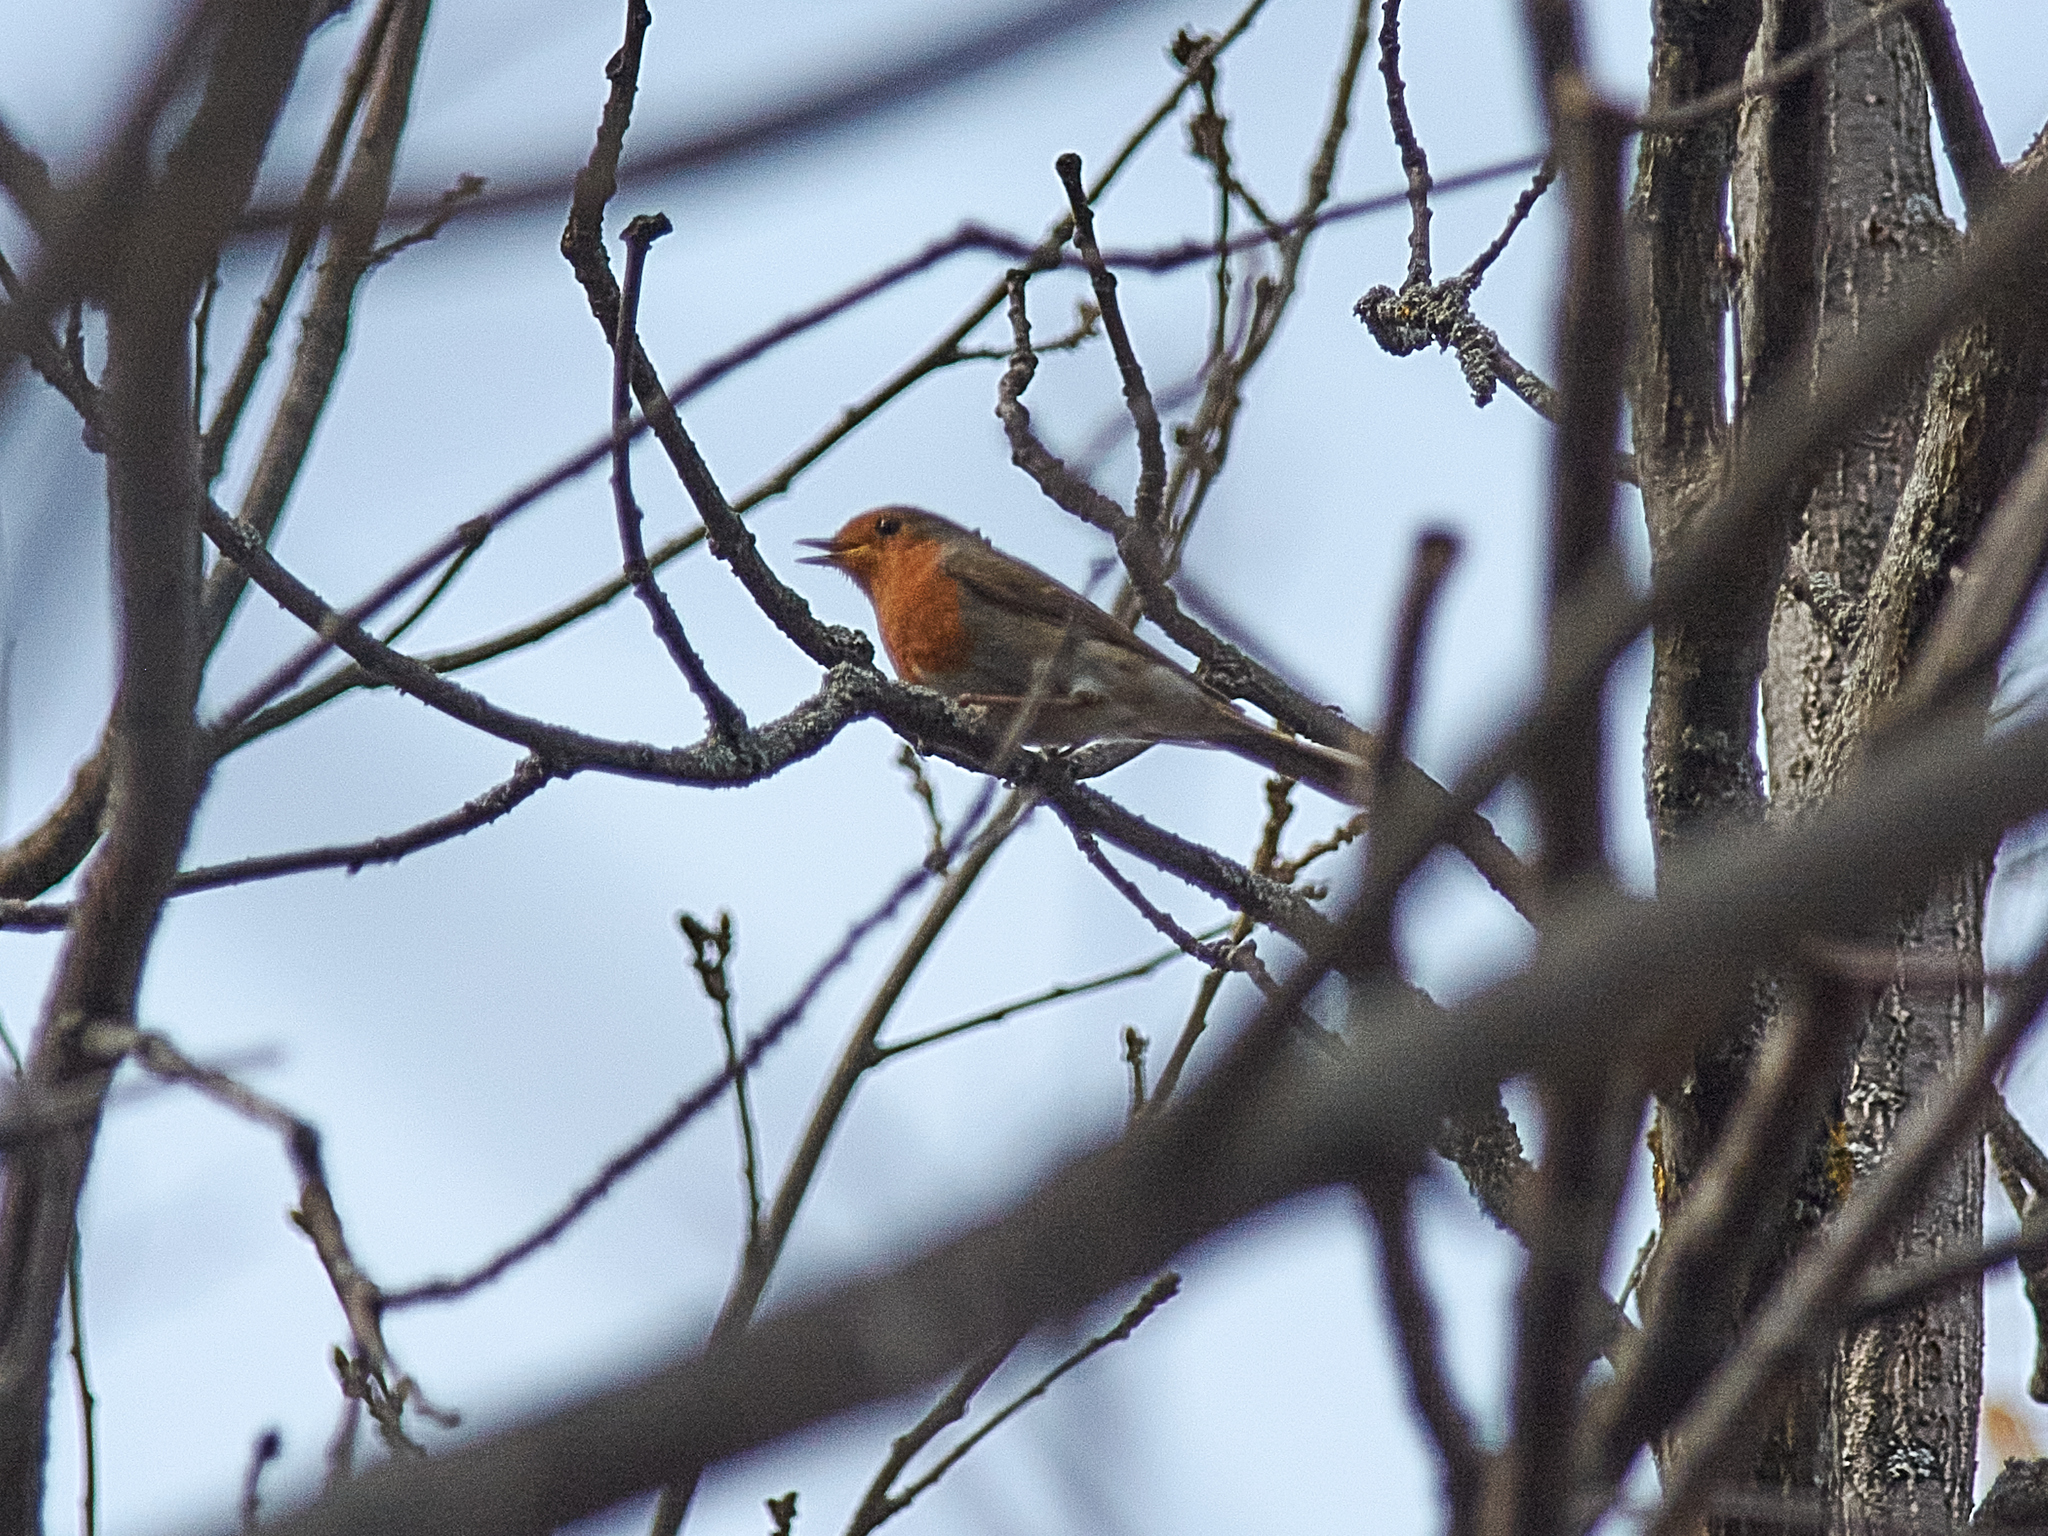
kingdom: Animalia
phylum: Chordata
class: Aves
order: Passeriformes
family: Muscicapidae
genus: Erithacus
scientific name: Erithacus rubecula
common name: European robin
